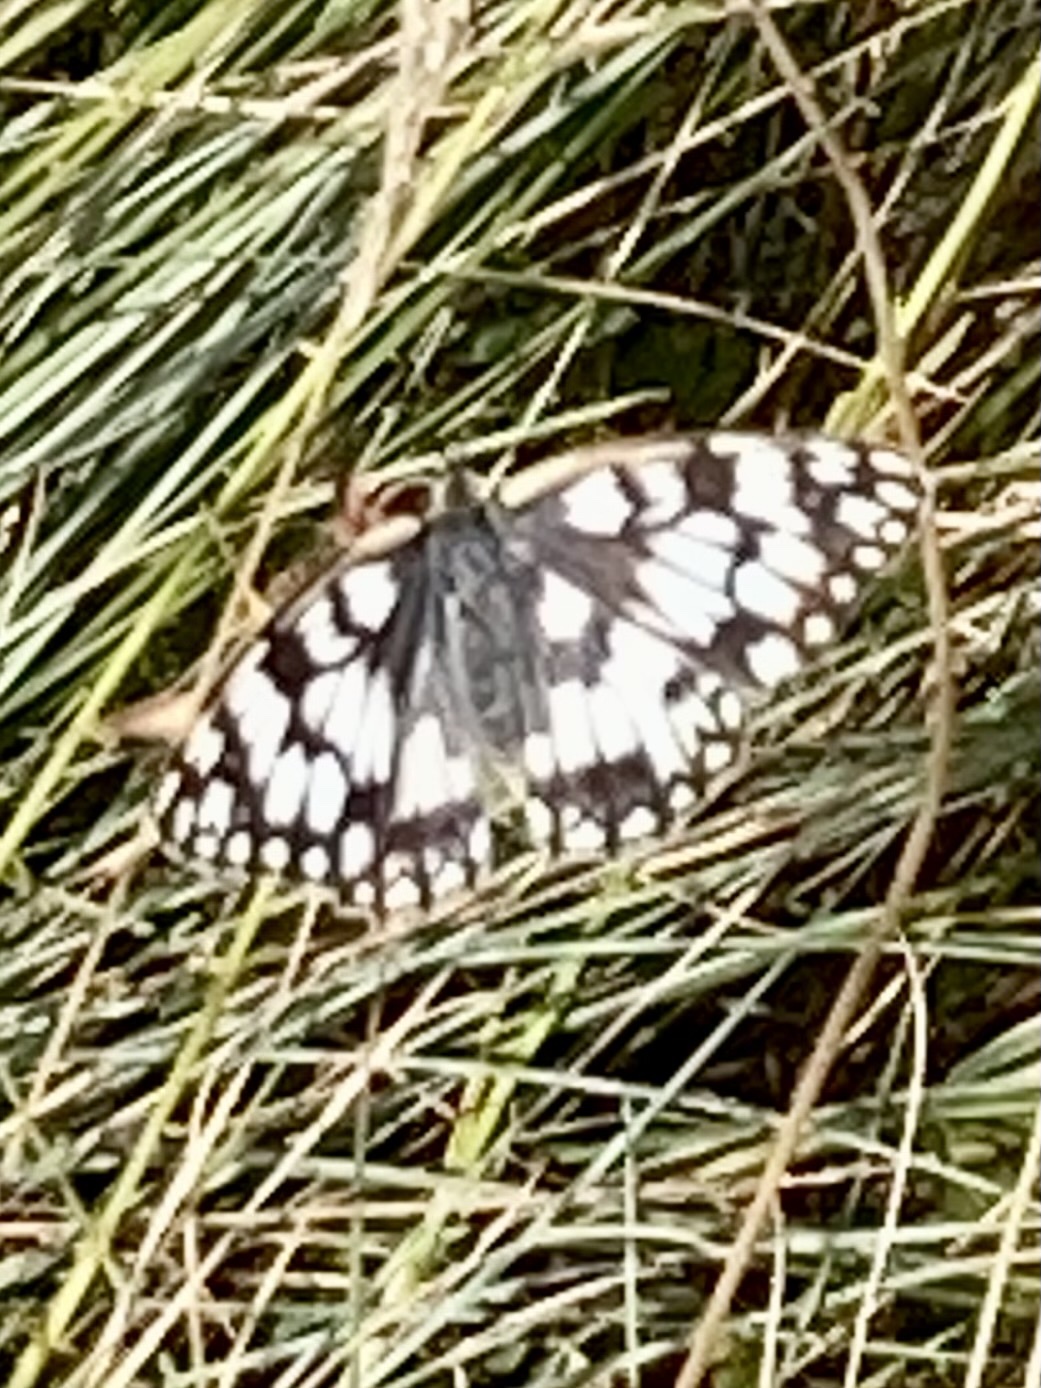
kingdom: Animalia
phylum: Arthropoda
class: Insecta
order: Lepidoptera
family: Nymphalidae
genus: Melanargia
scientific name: Melanargia japygia
